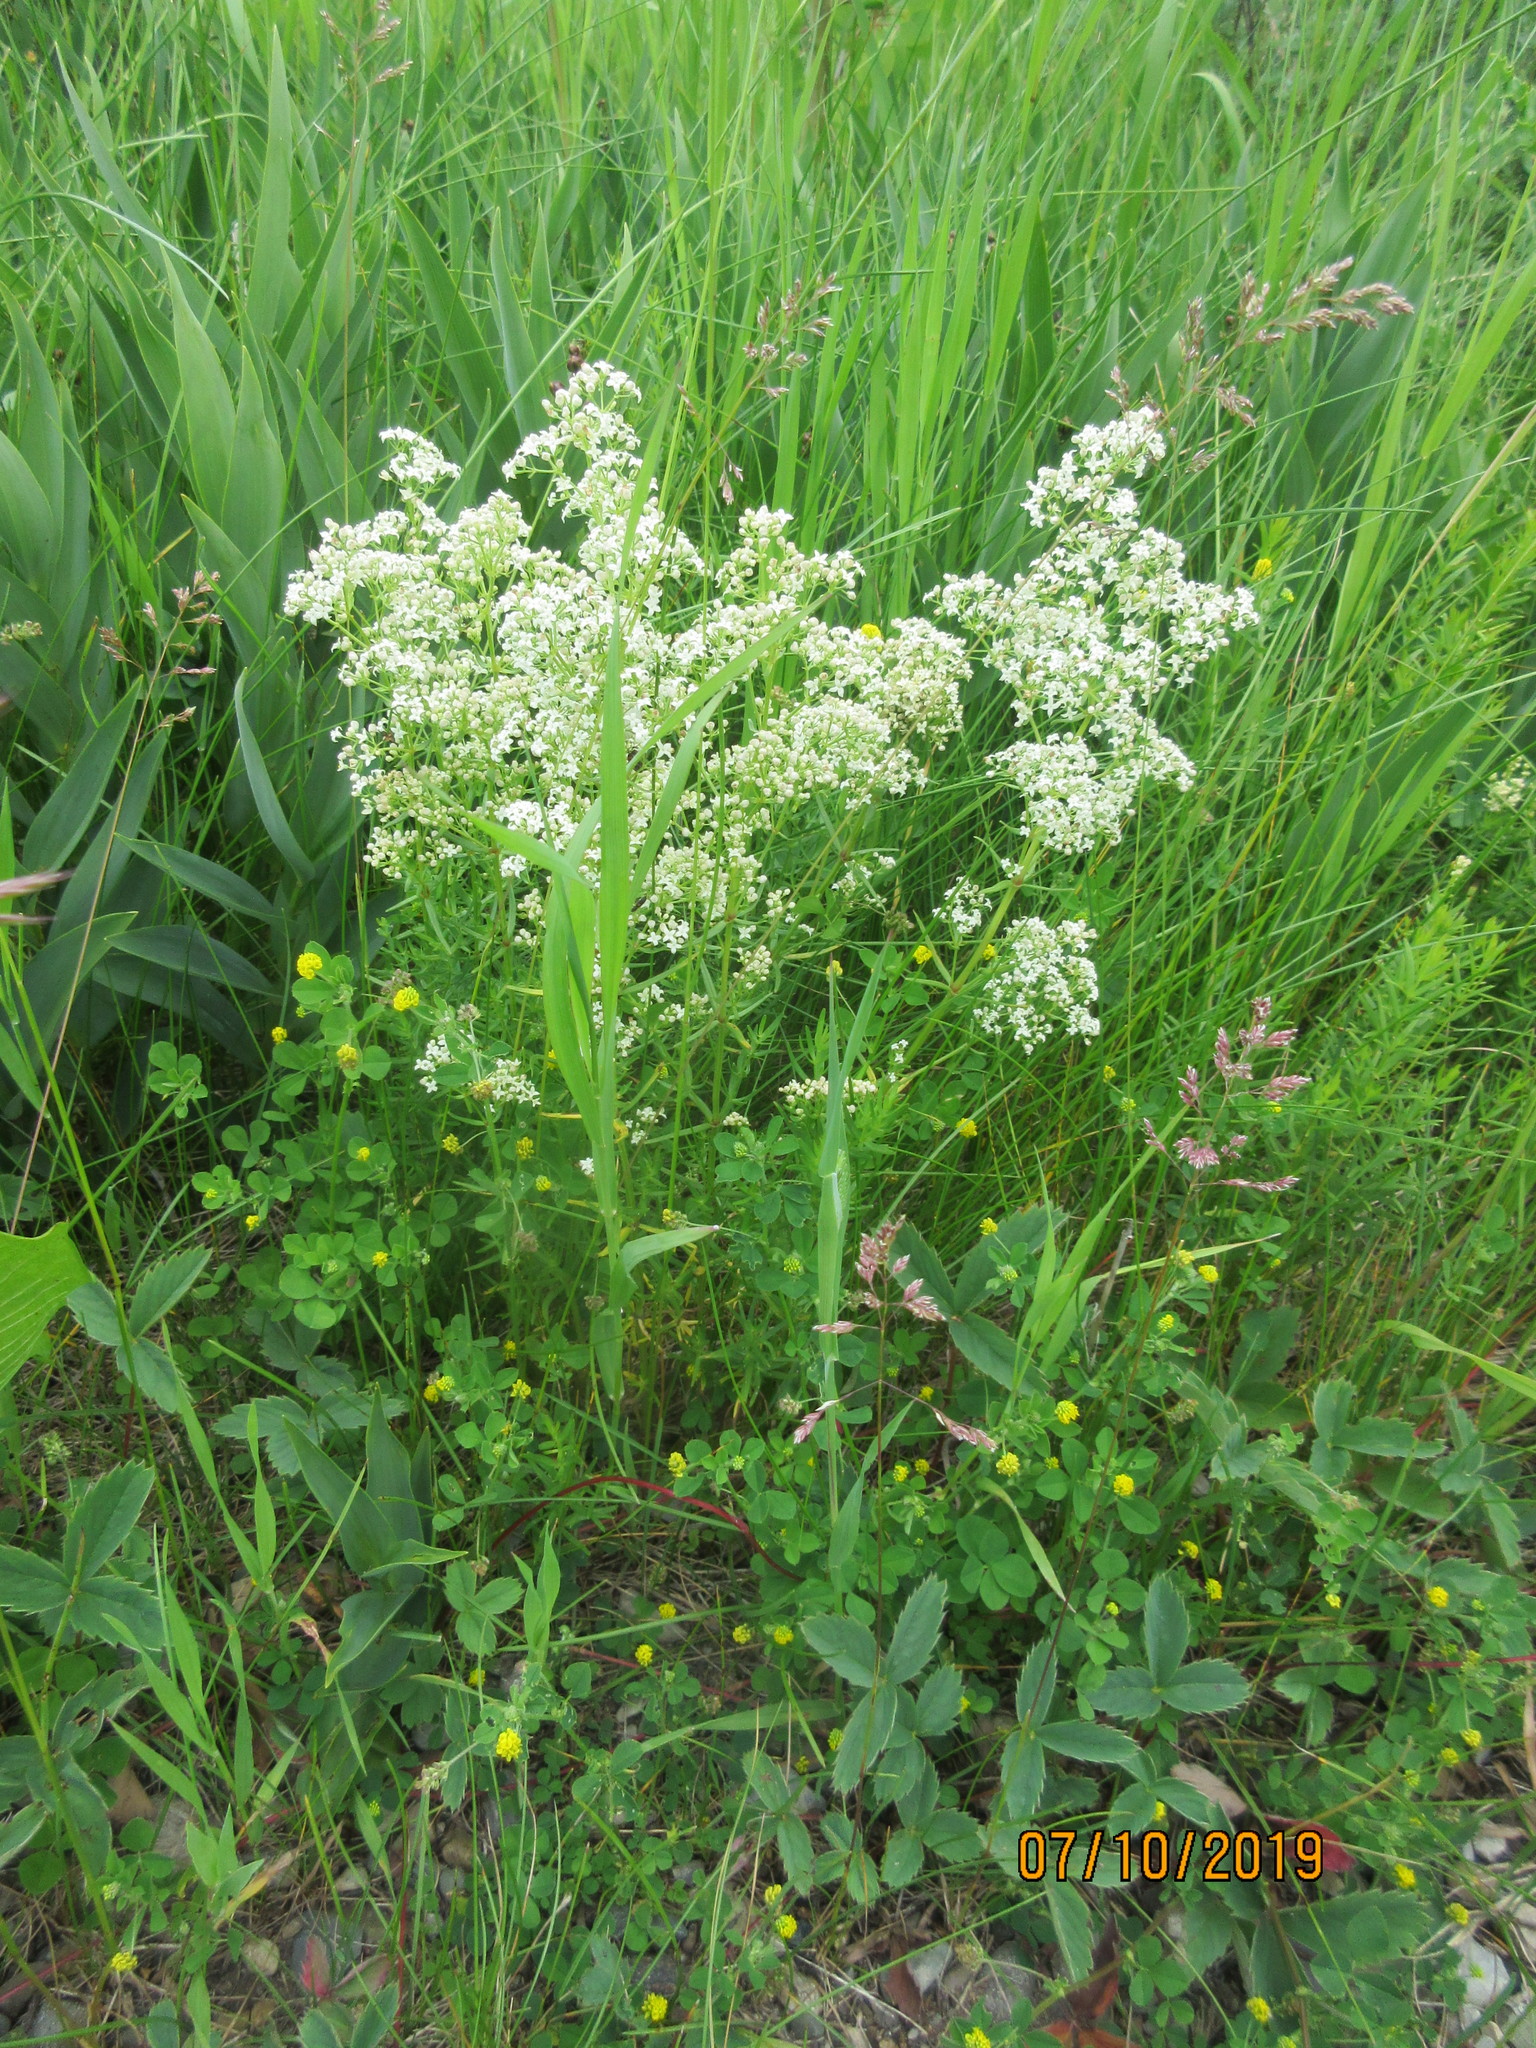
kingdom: Plantae
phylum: Tracheophyta
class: Magnoliopsida
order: Gentianales
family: Rubiaceae
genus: Galium
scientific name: Galium boreale
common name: Northern bedstraw
